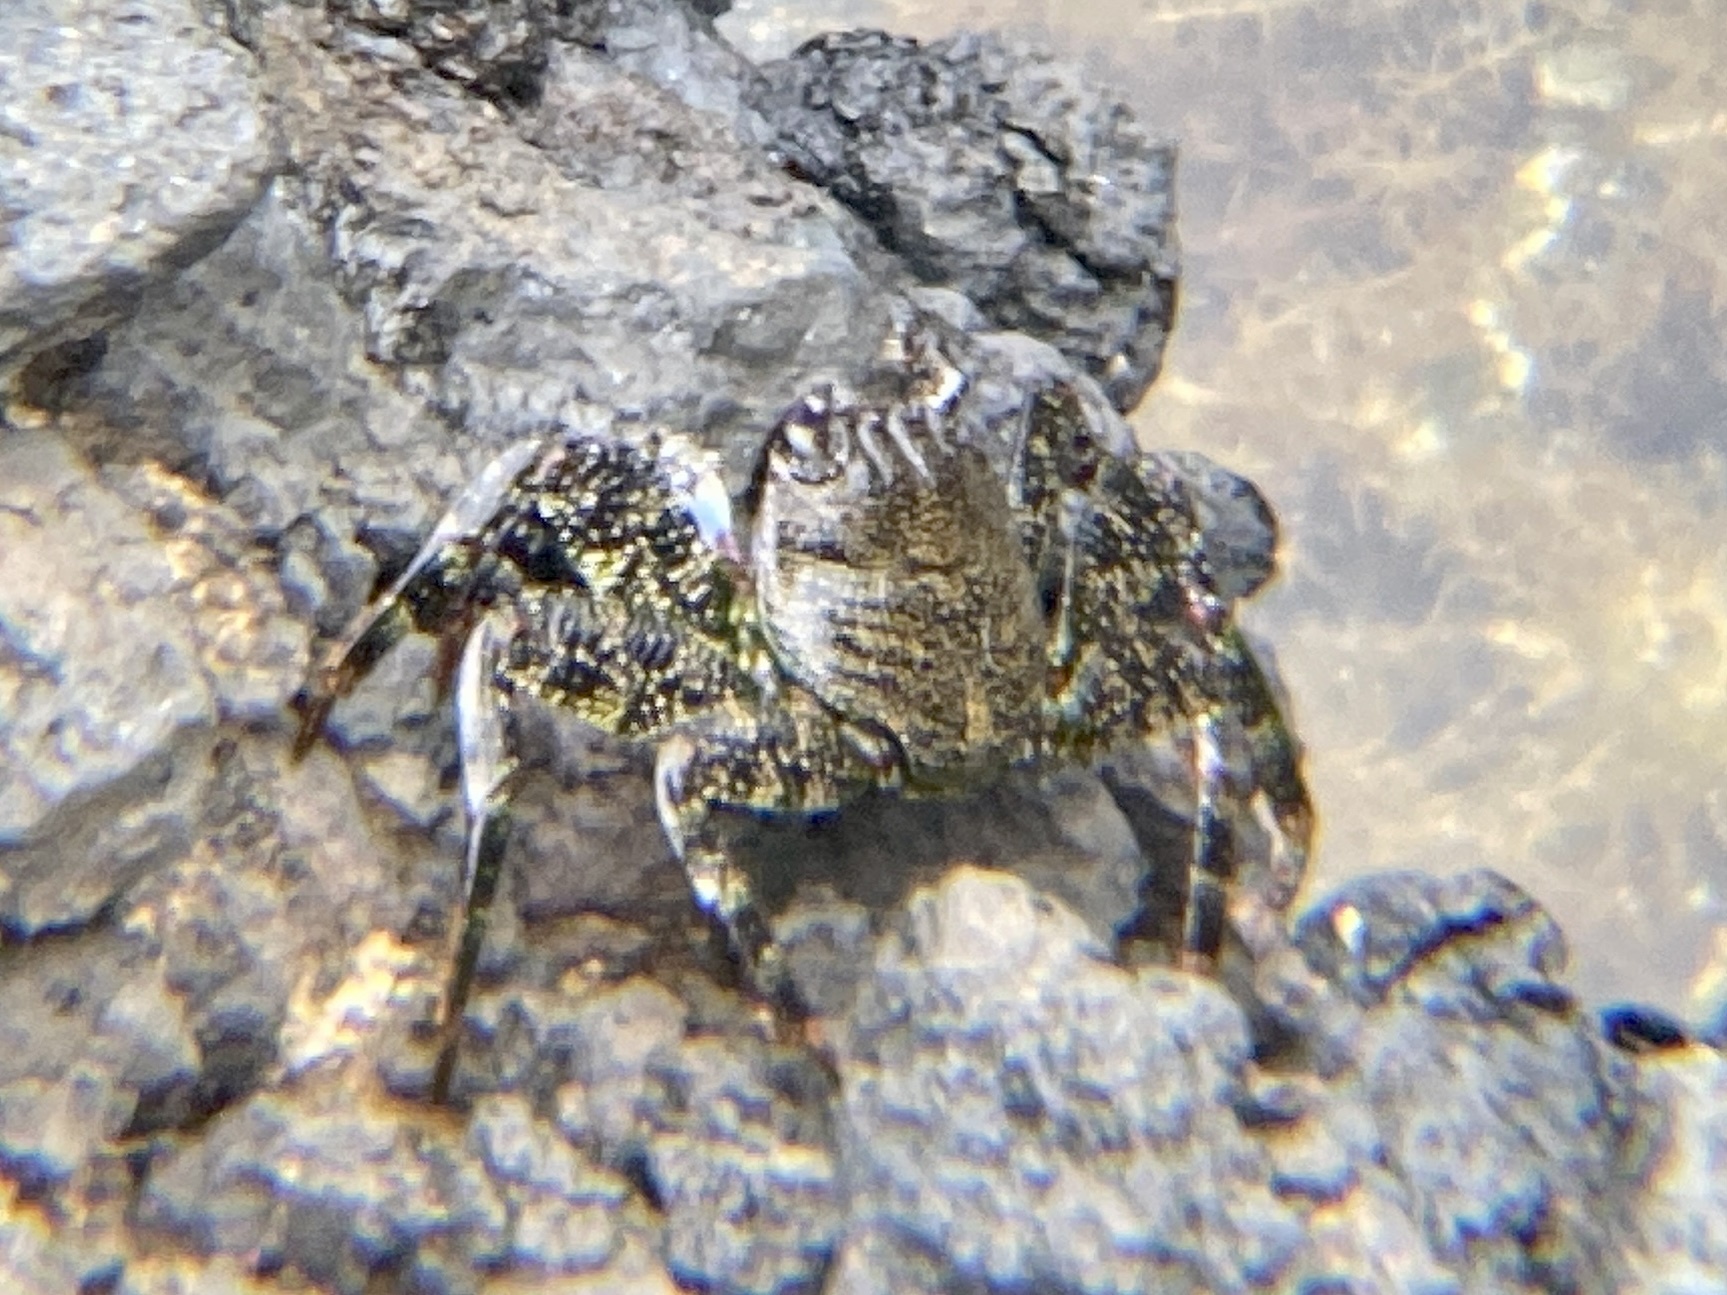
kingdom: Animalia
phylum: Arthropoda
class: Malacostraca
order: Decapoda
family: Grapsidae
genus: Grapsus
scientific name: Grapsus adscensionis
